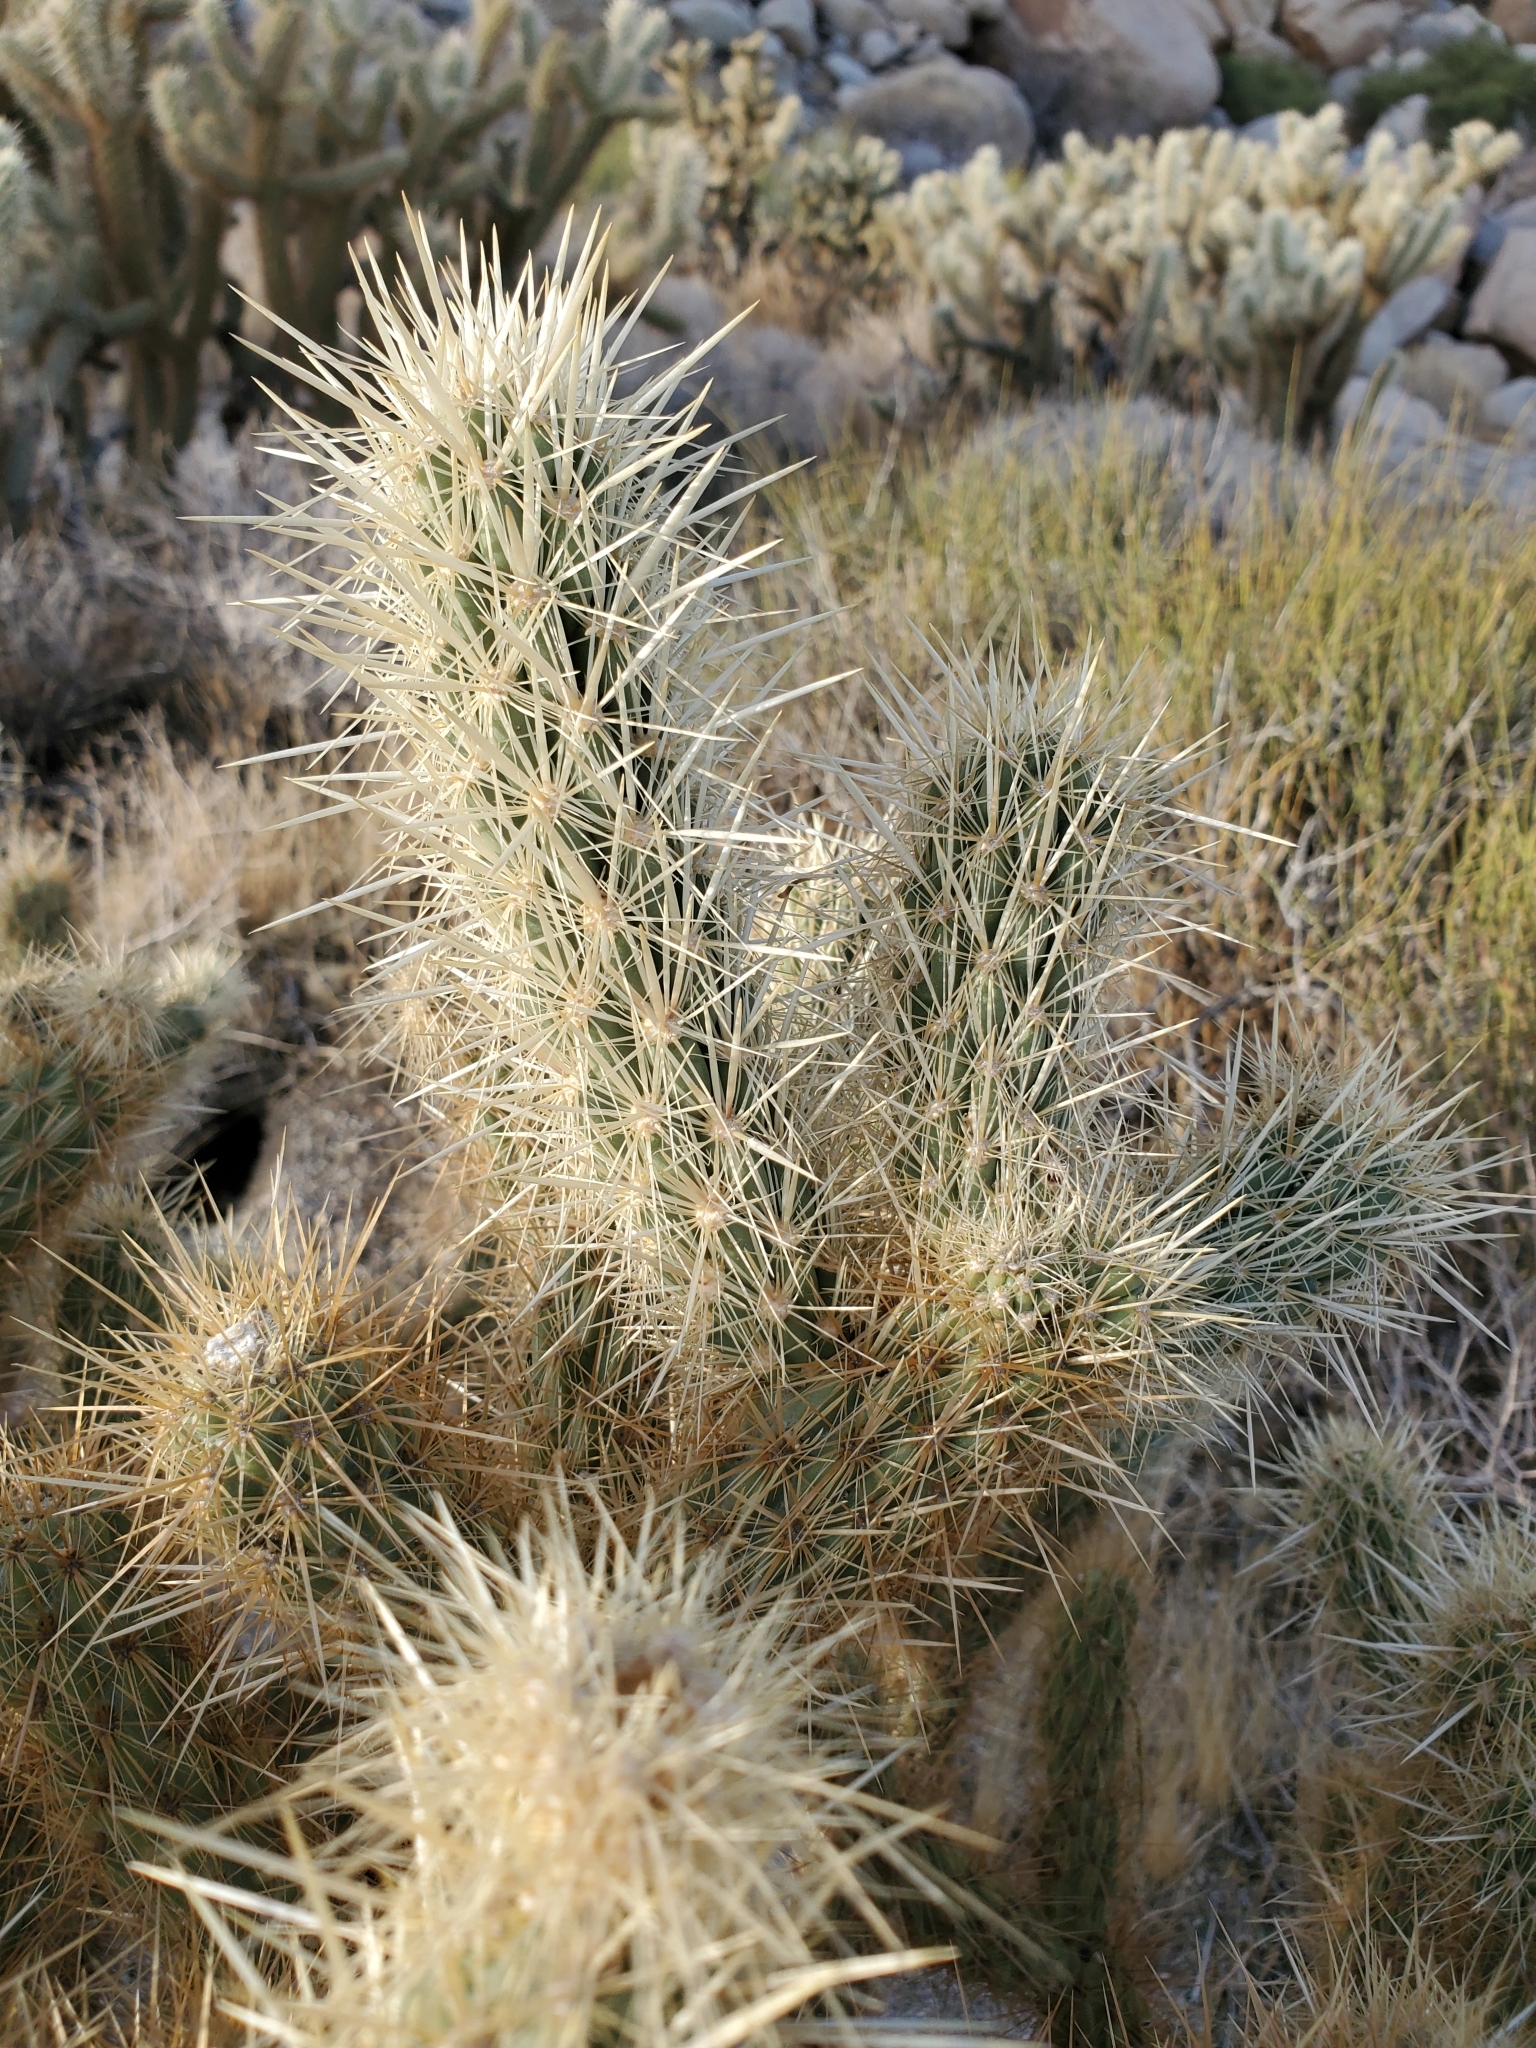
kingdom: Plantae
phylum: Tracheophyta
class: Magnoliopsida
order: Caryophyllales
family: Cactaceae
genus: Cylindropuntia
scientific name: Cylindropuntia echinocarpa
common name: Ground cholla
